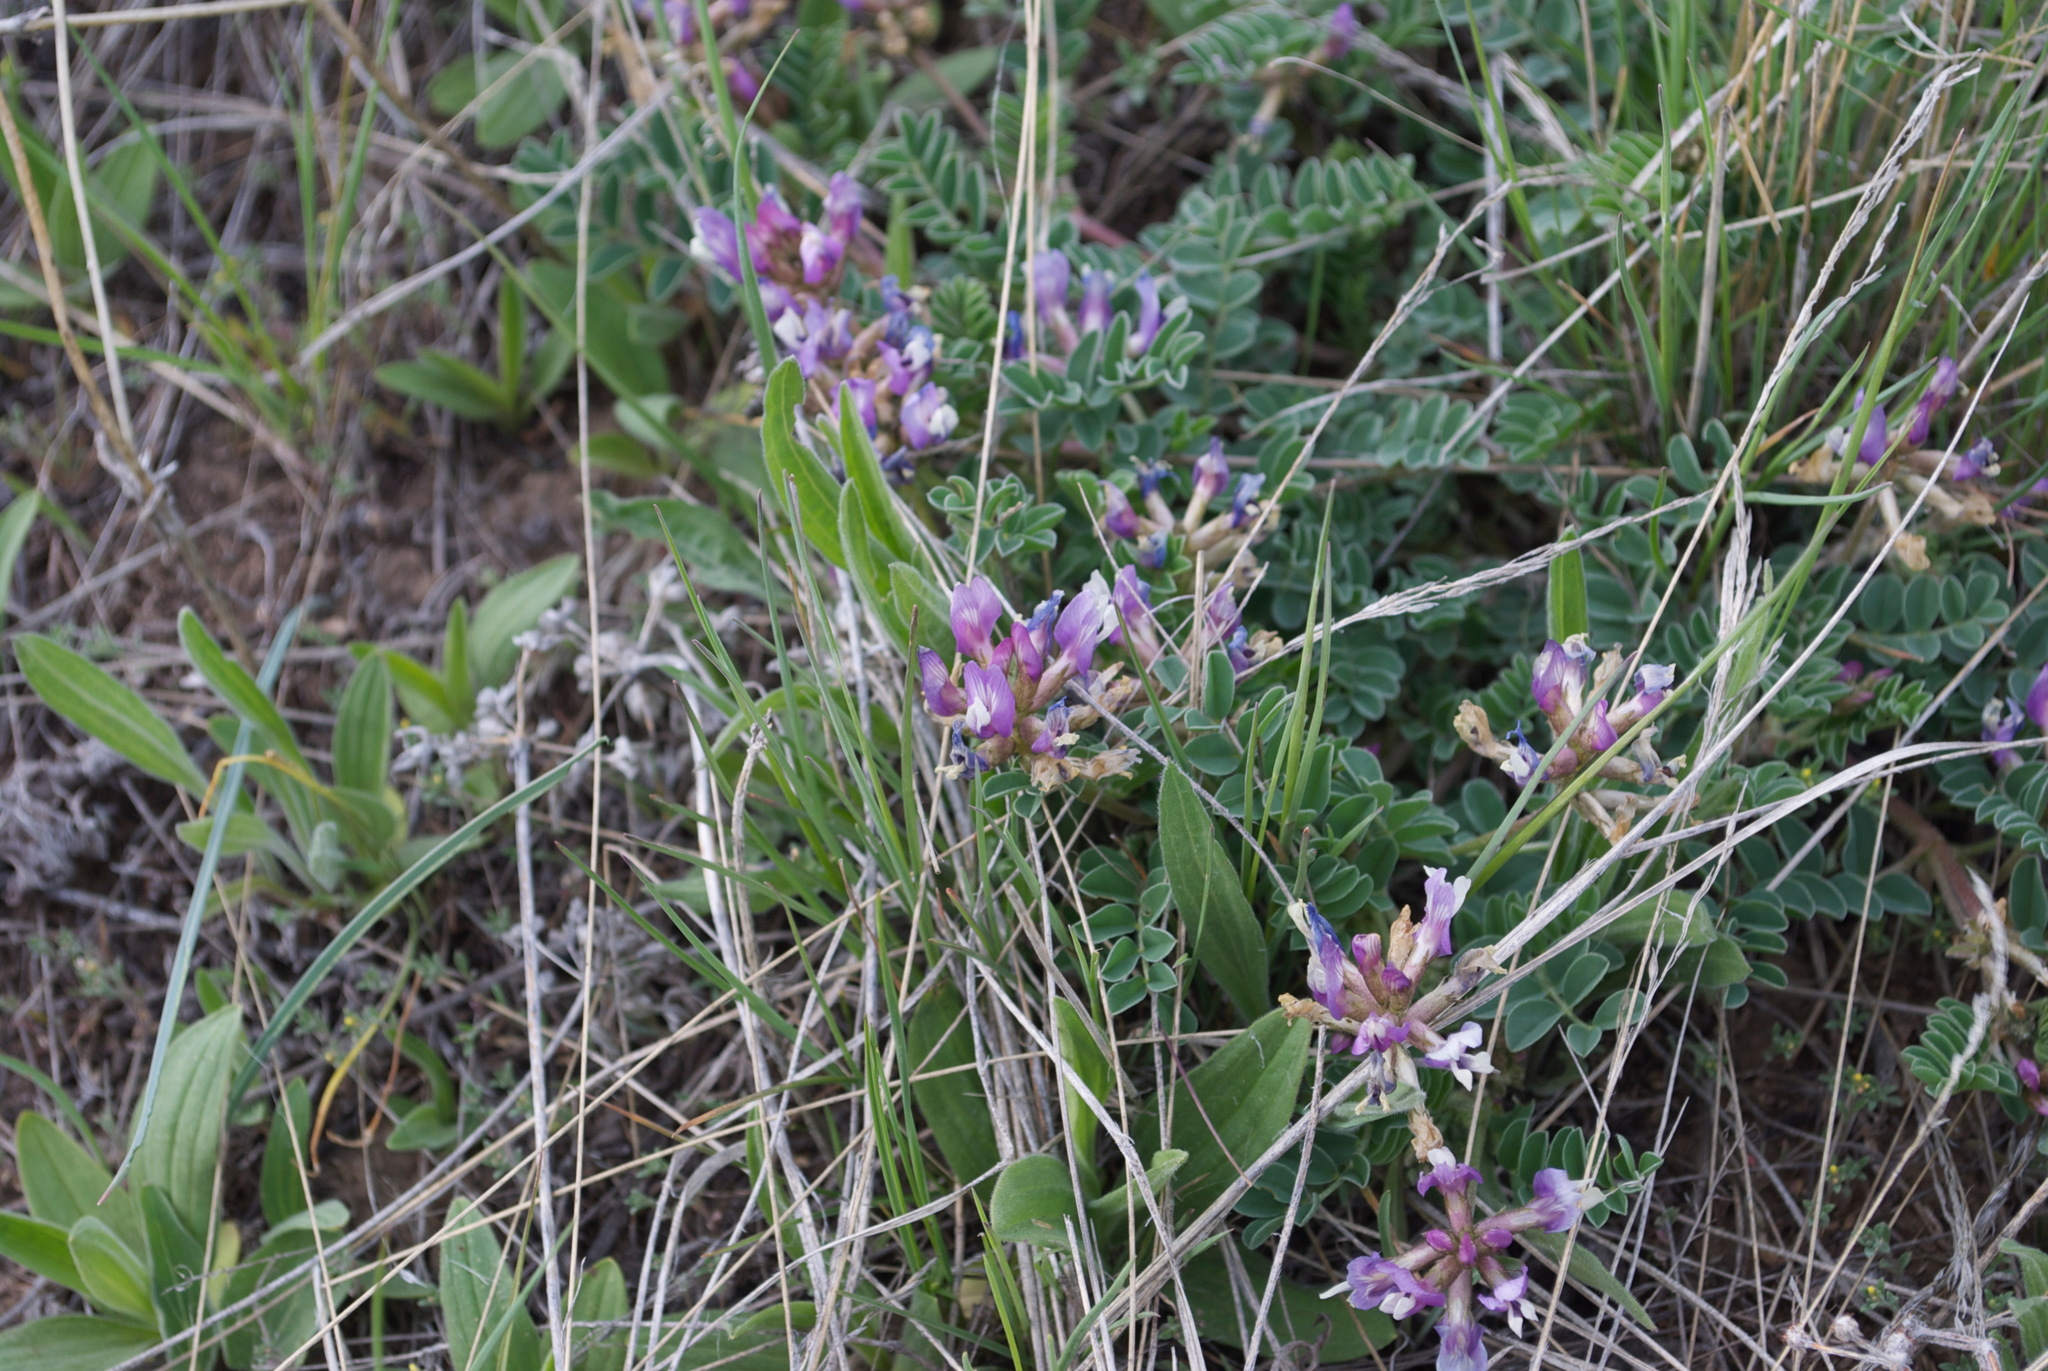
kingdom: Plantae
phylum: Tracheophyta
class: Magnoliopsida
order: Fabales
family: Fabaceae
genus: Astragalus
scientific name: Astragalus cibarius
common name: Browse milk-vetch
